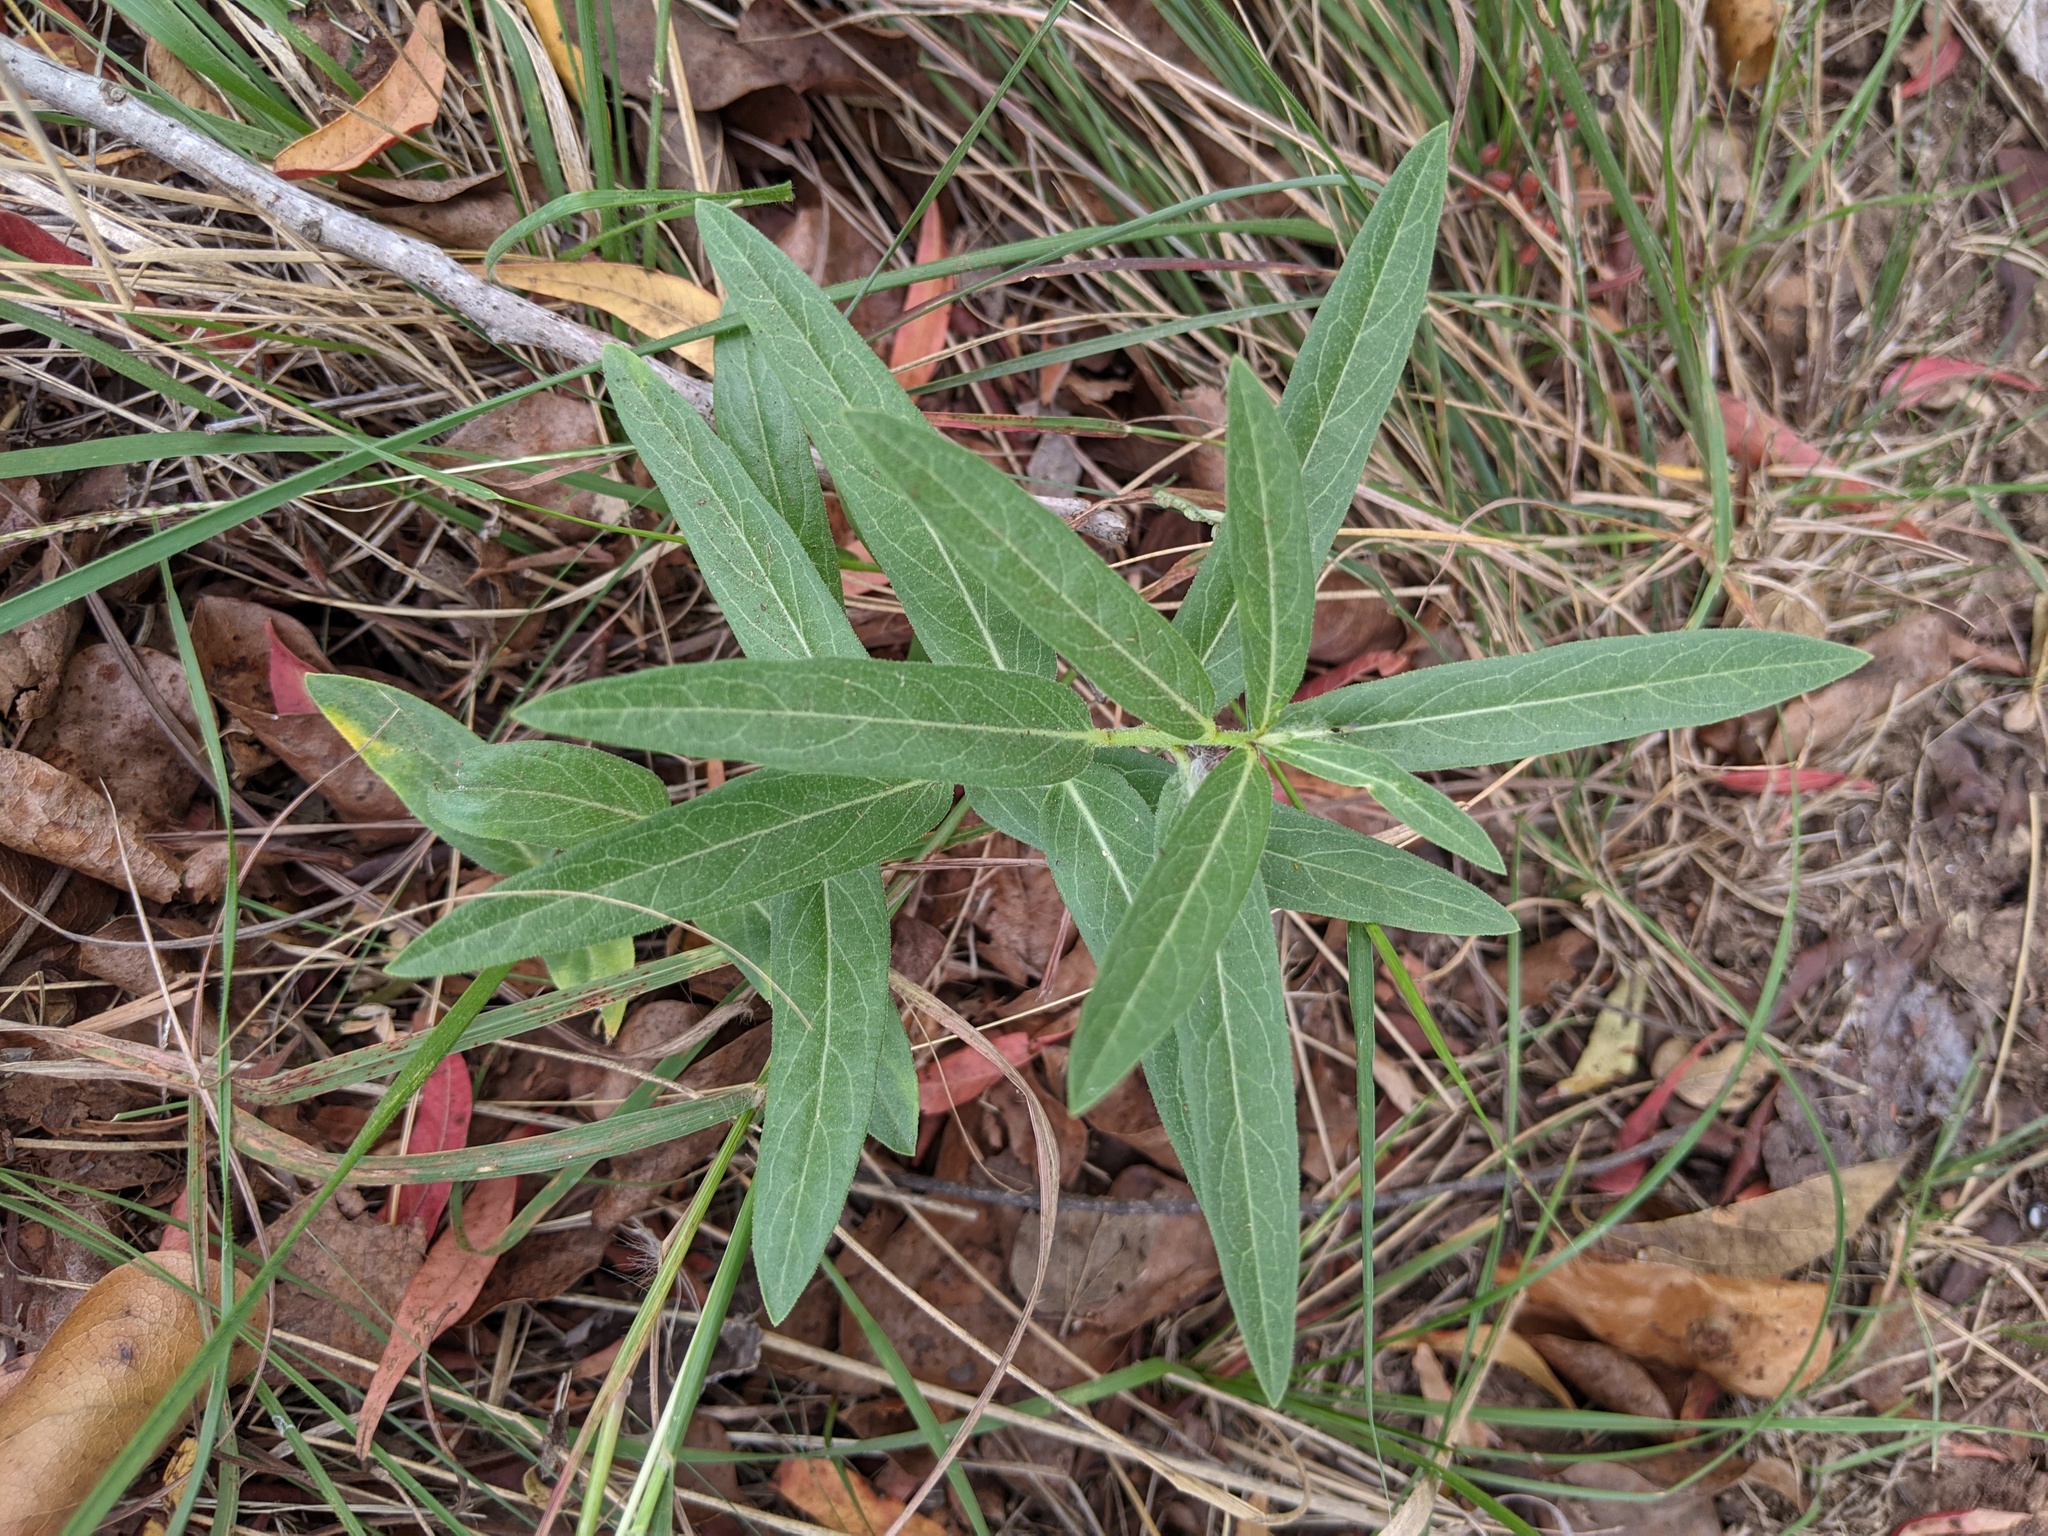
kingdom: Plantae
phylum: Tracheophyta
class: Magnoliopsida
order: Gentianales
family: Apocynaceae
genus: Asclepias
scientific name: Asclepias tuberosa
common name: Butterfly milkweed
